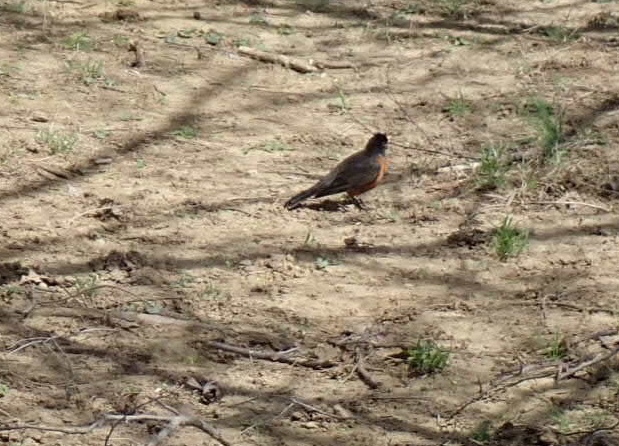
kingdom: Animalia
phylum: Chordata
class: Aves
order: Passeriformes
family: Turdidae
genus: Turdus
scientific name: Turdus migratorius
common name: American robin
